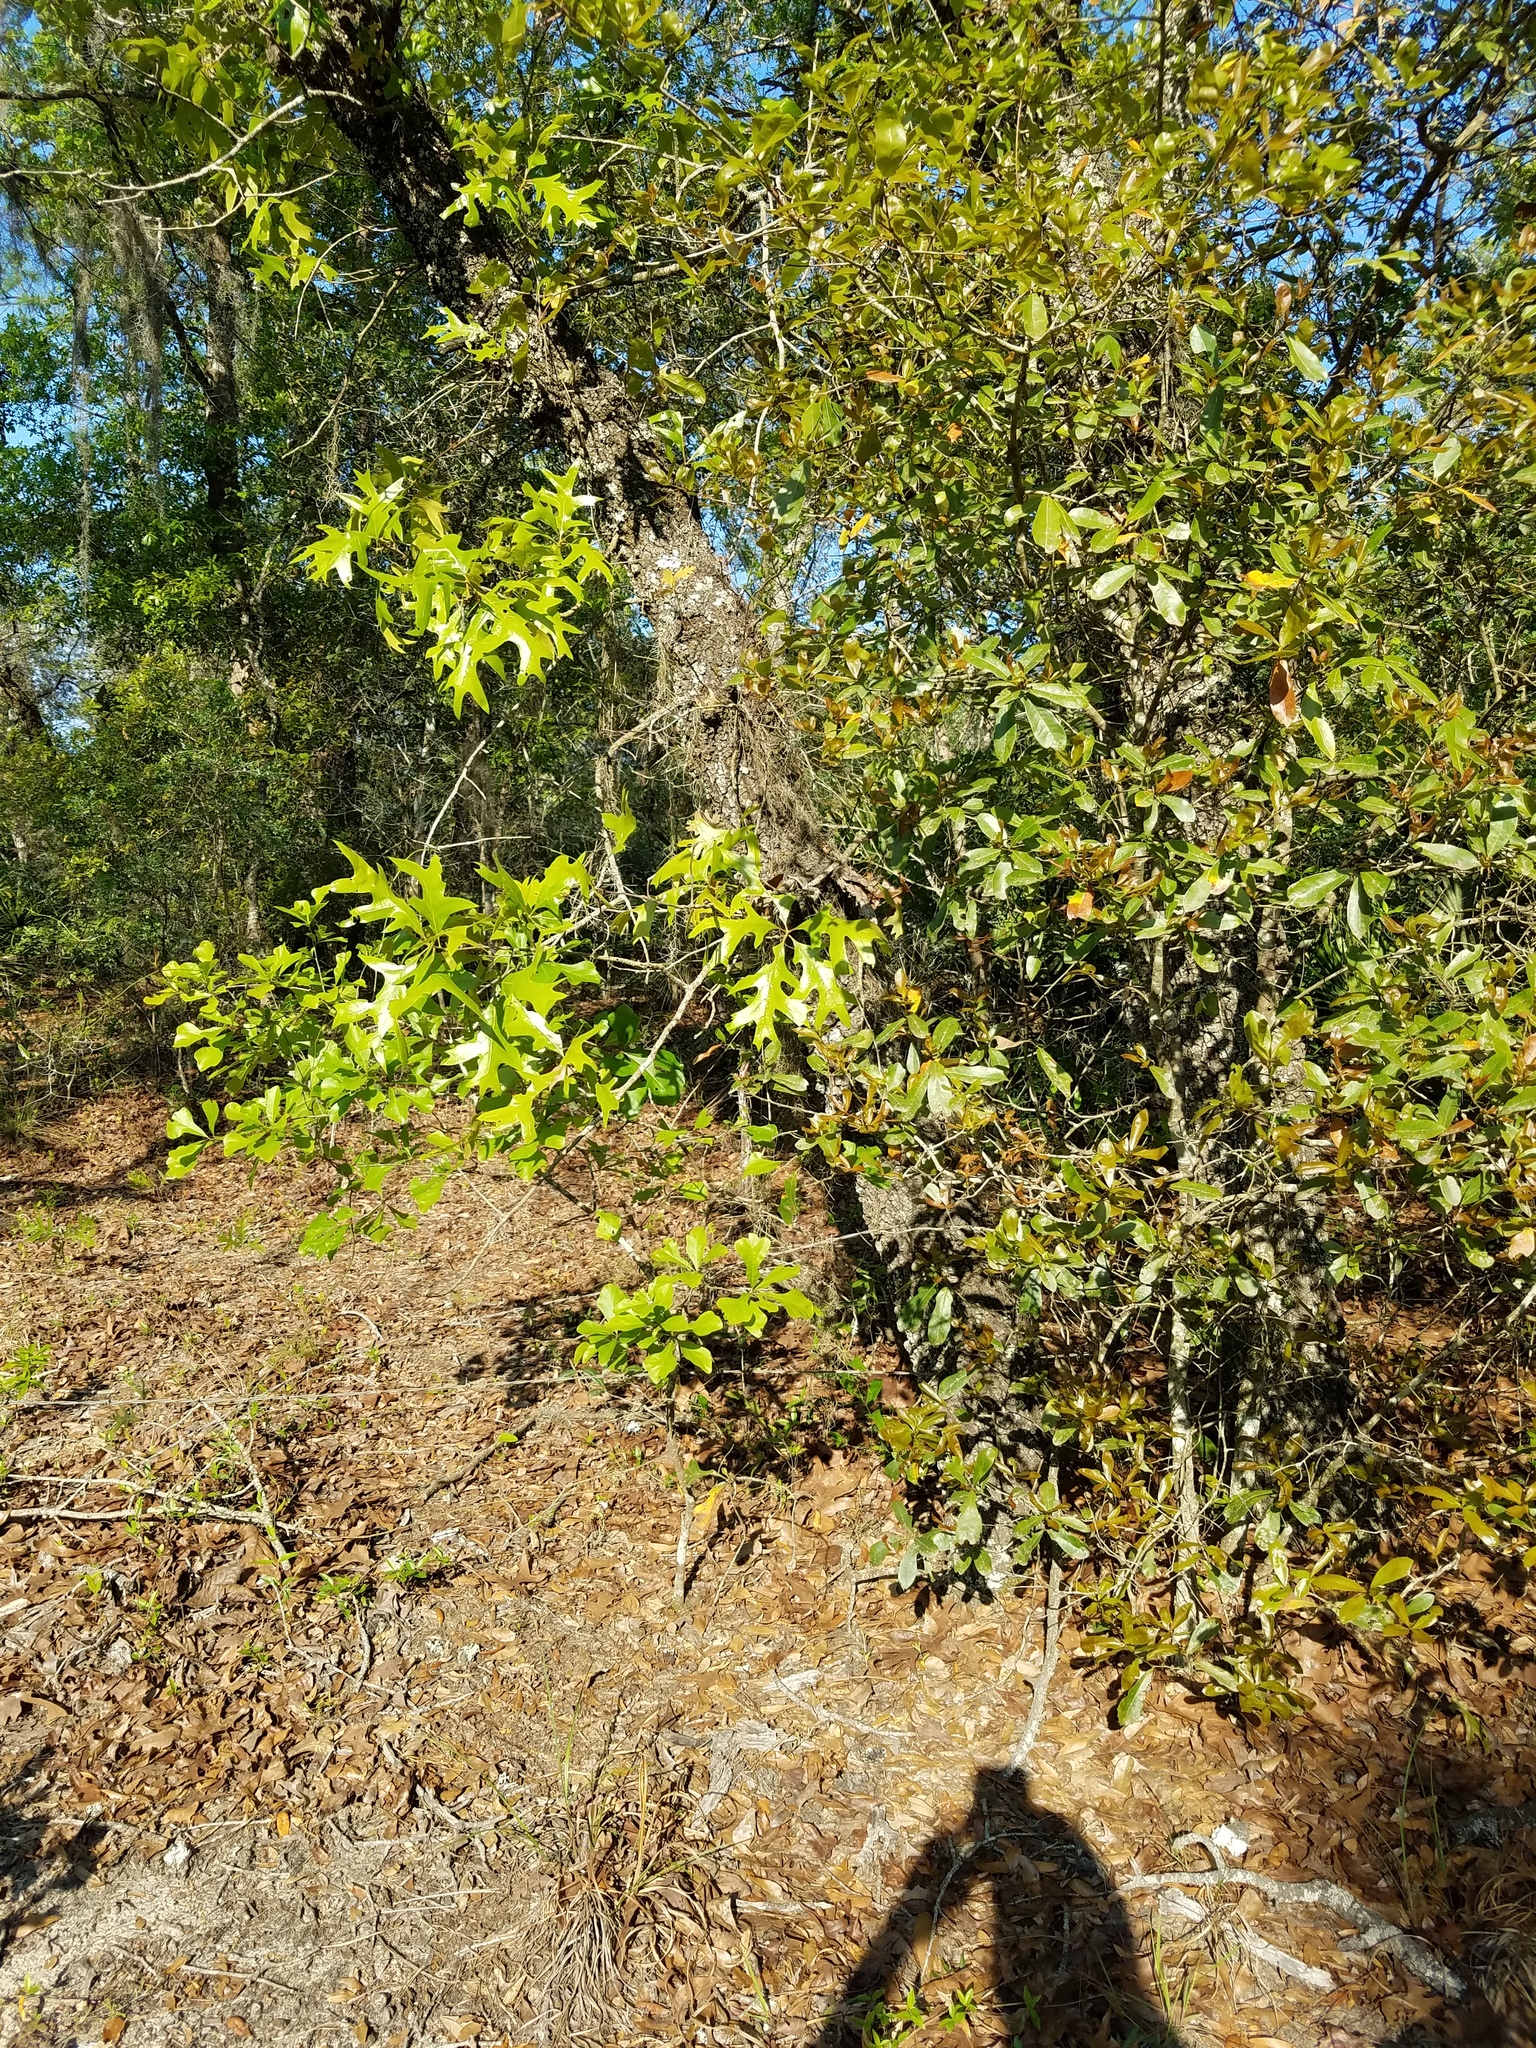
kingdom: Plantae
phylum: Tracheophyta
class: Magnoliopsida
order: Fagales
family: Fagaceae
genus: Quercus
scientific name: Quercus laevis
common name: Turkey oak
